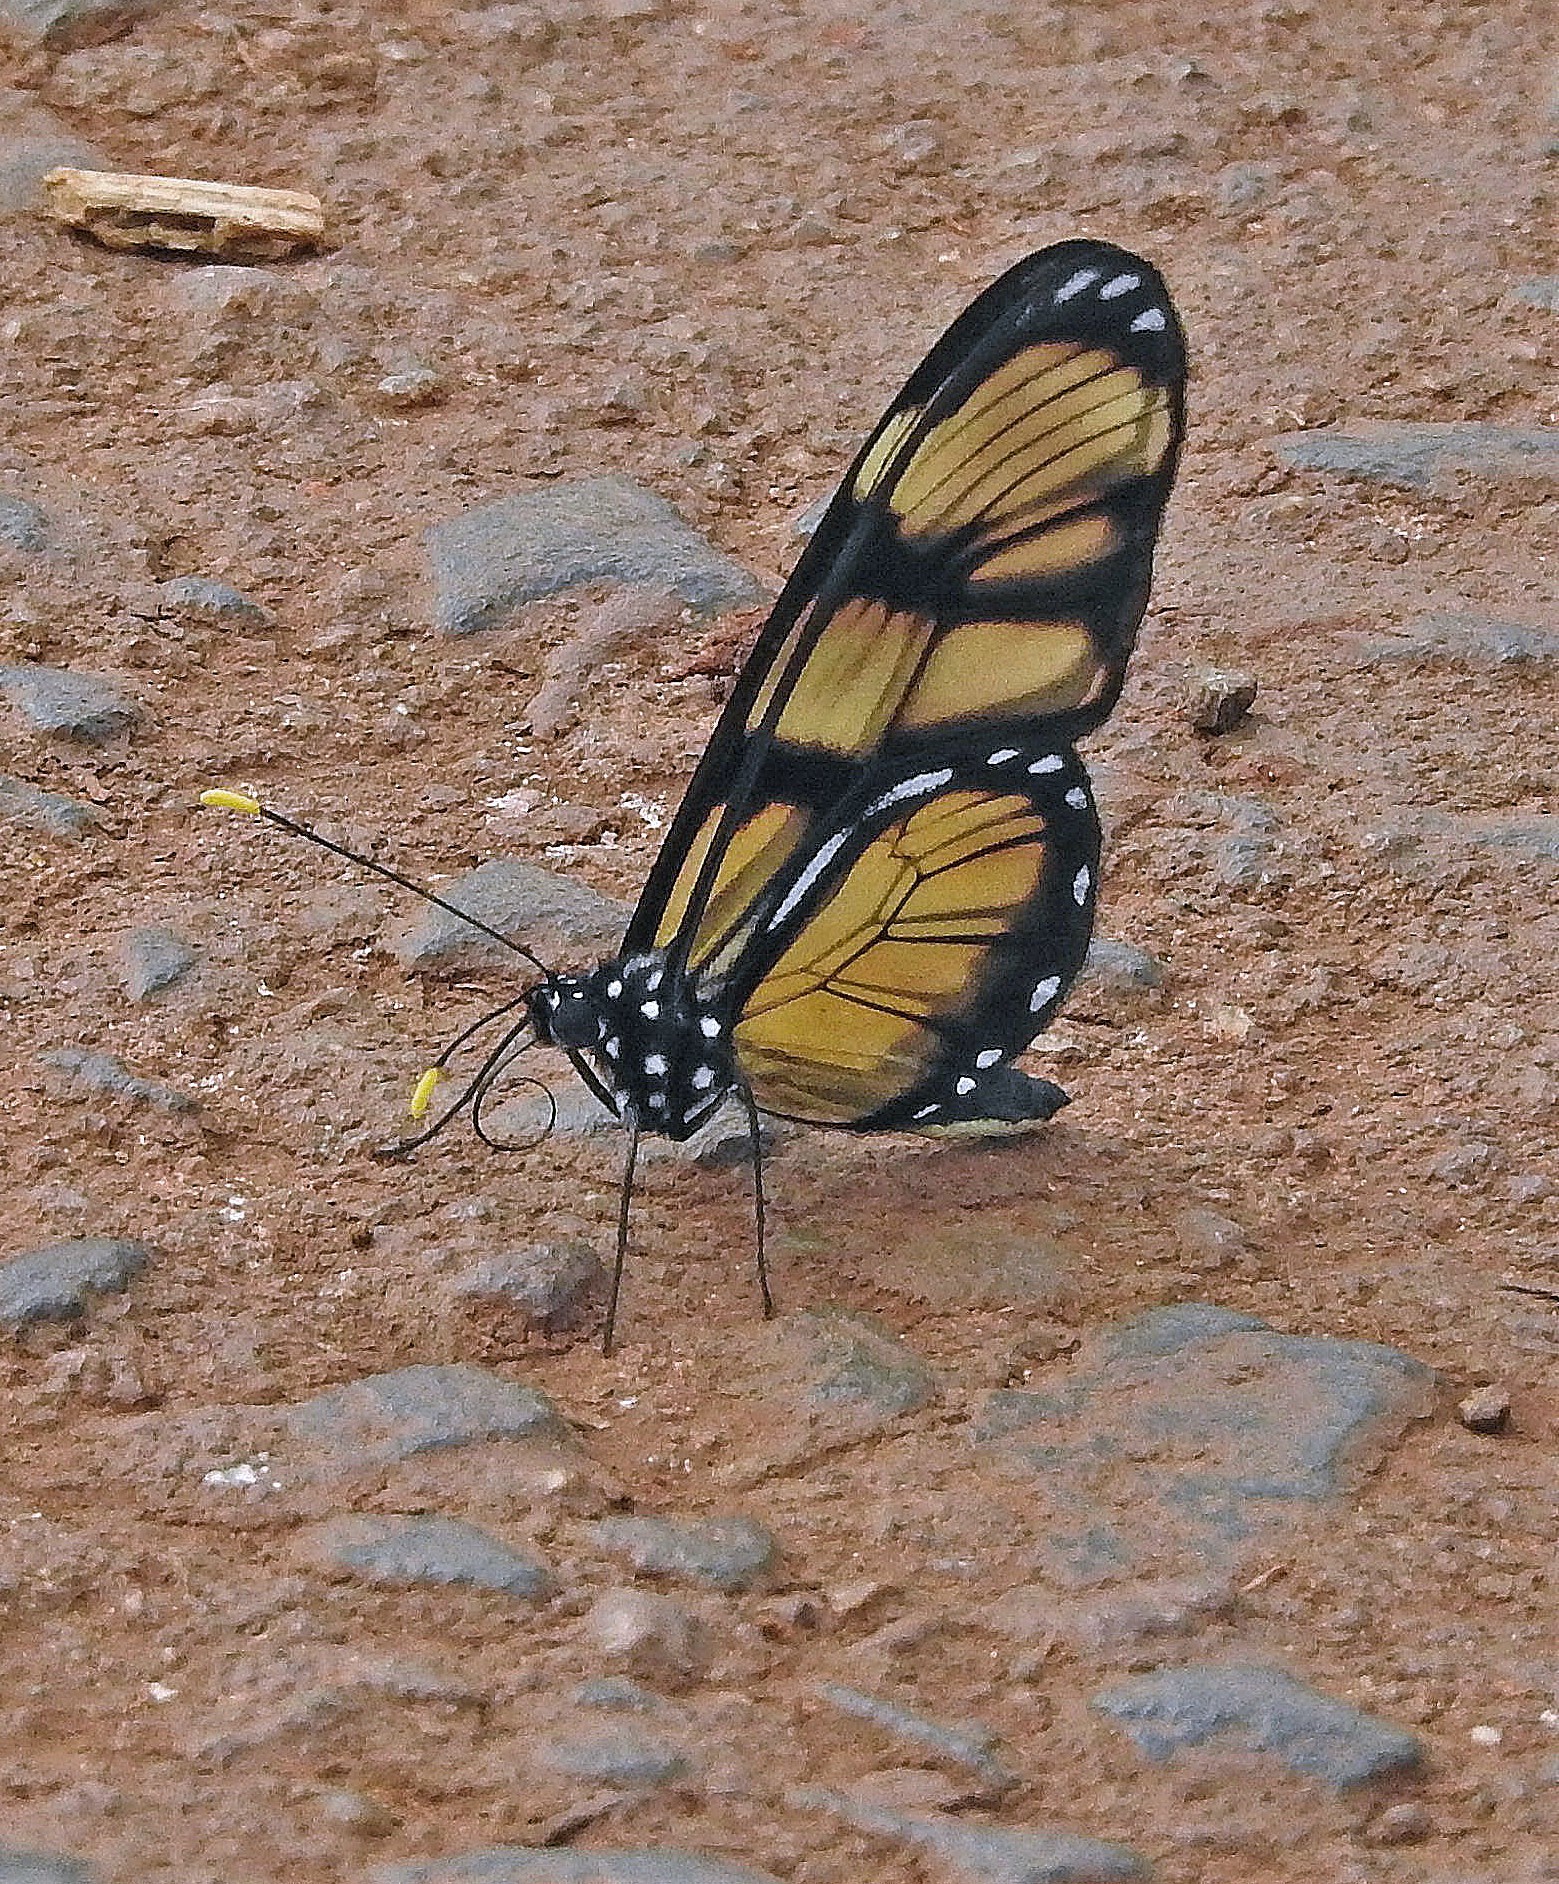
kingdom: Animalia
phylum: Arthropoda
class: Insecta
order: Lepidoptera
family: Nymphalidae
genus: Dircenna
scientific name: Dircenna dero
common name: Dero clearwing
